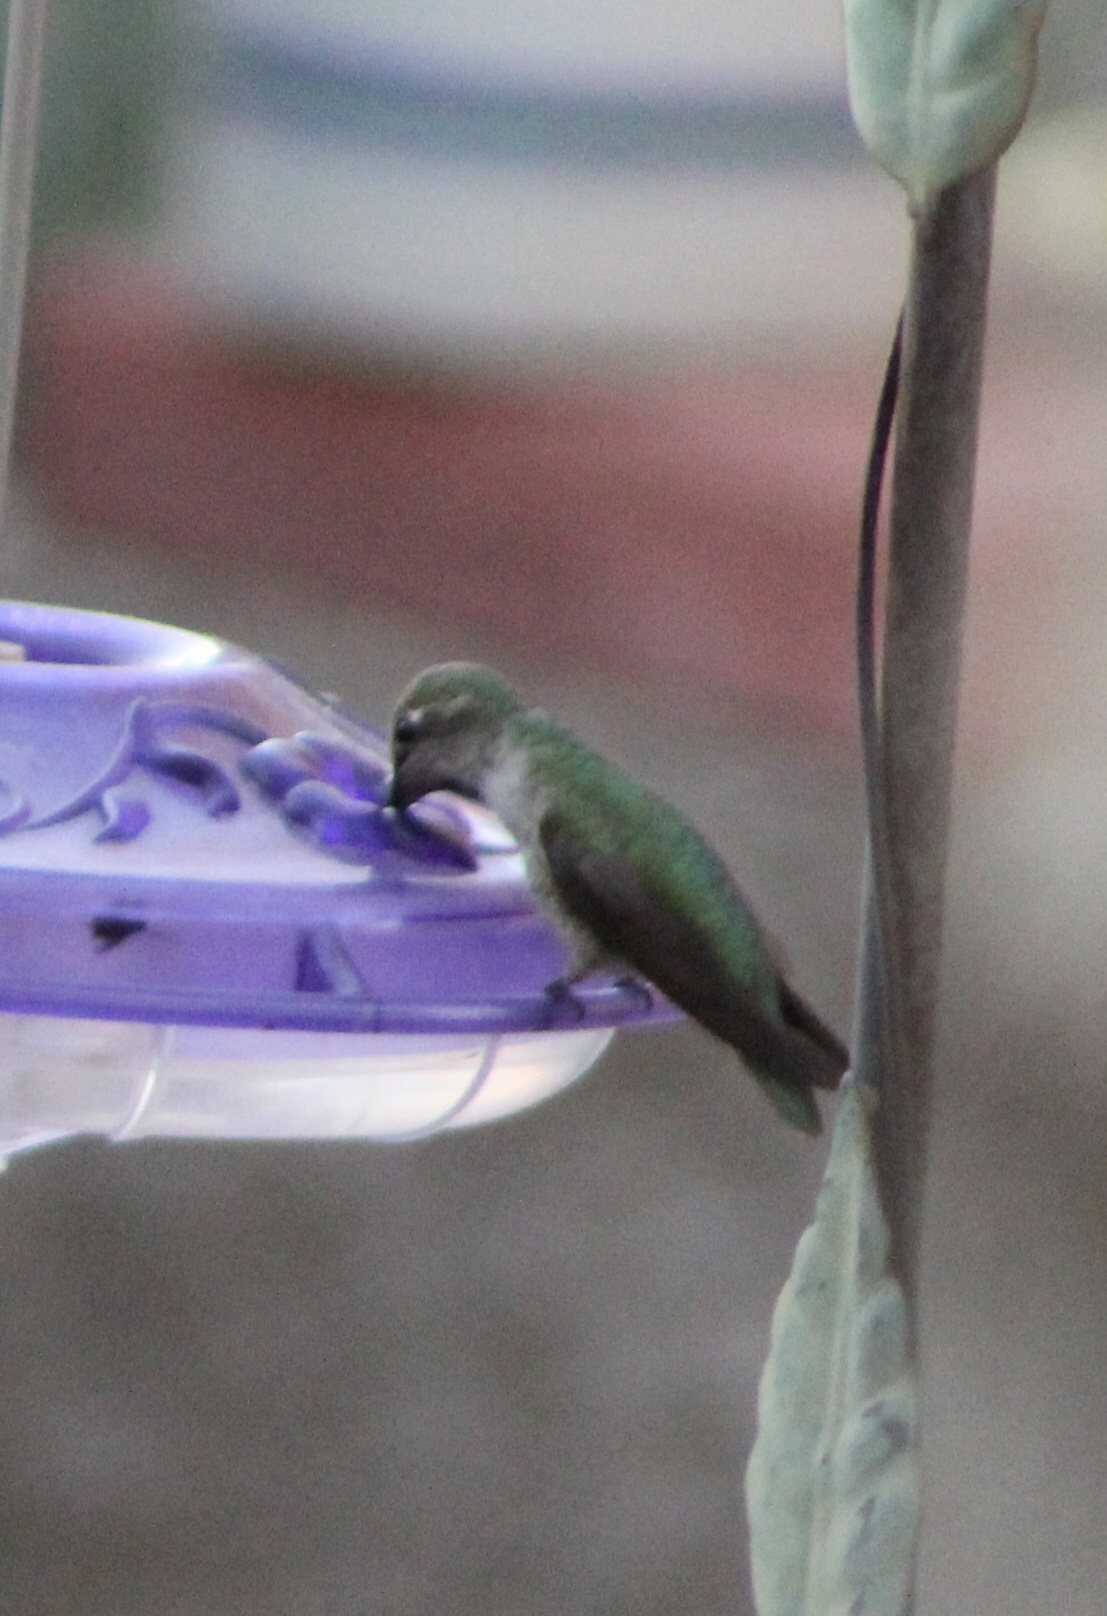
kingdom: Animalia
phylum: Chordata
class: Aves
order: Apodiformes
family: Trochilidae
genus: Calypte
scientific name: Calypte anna
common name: Anna's hummingbird
